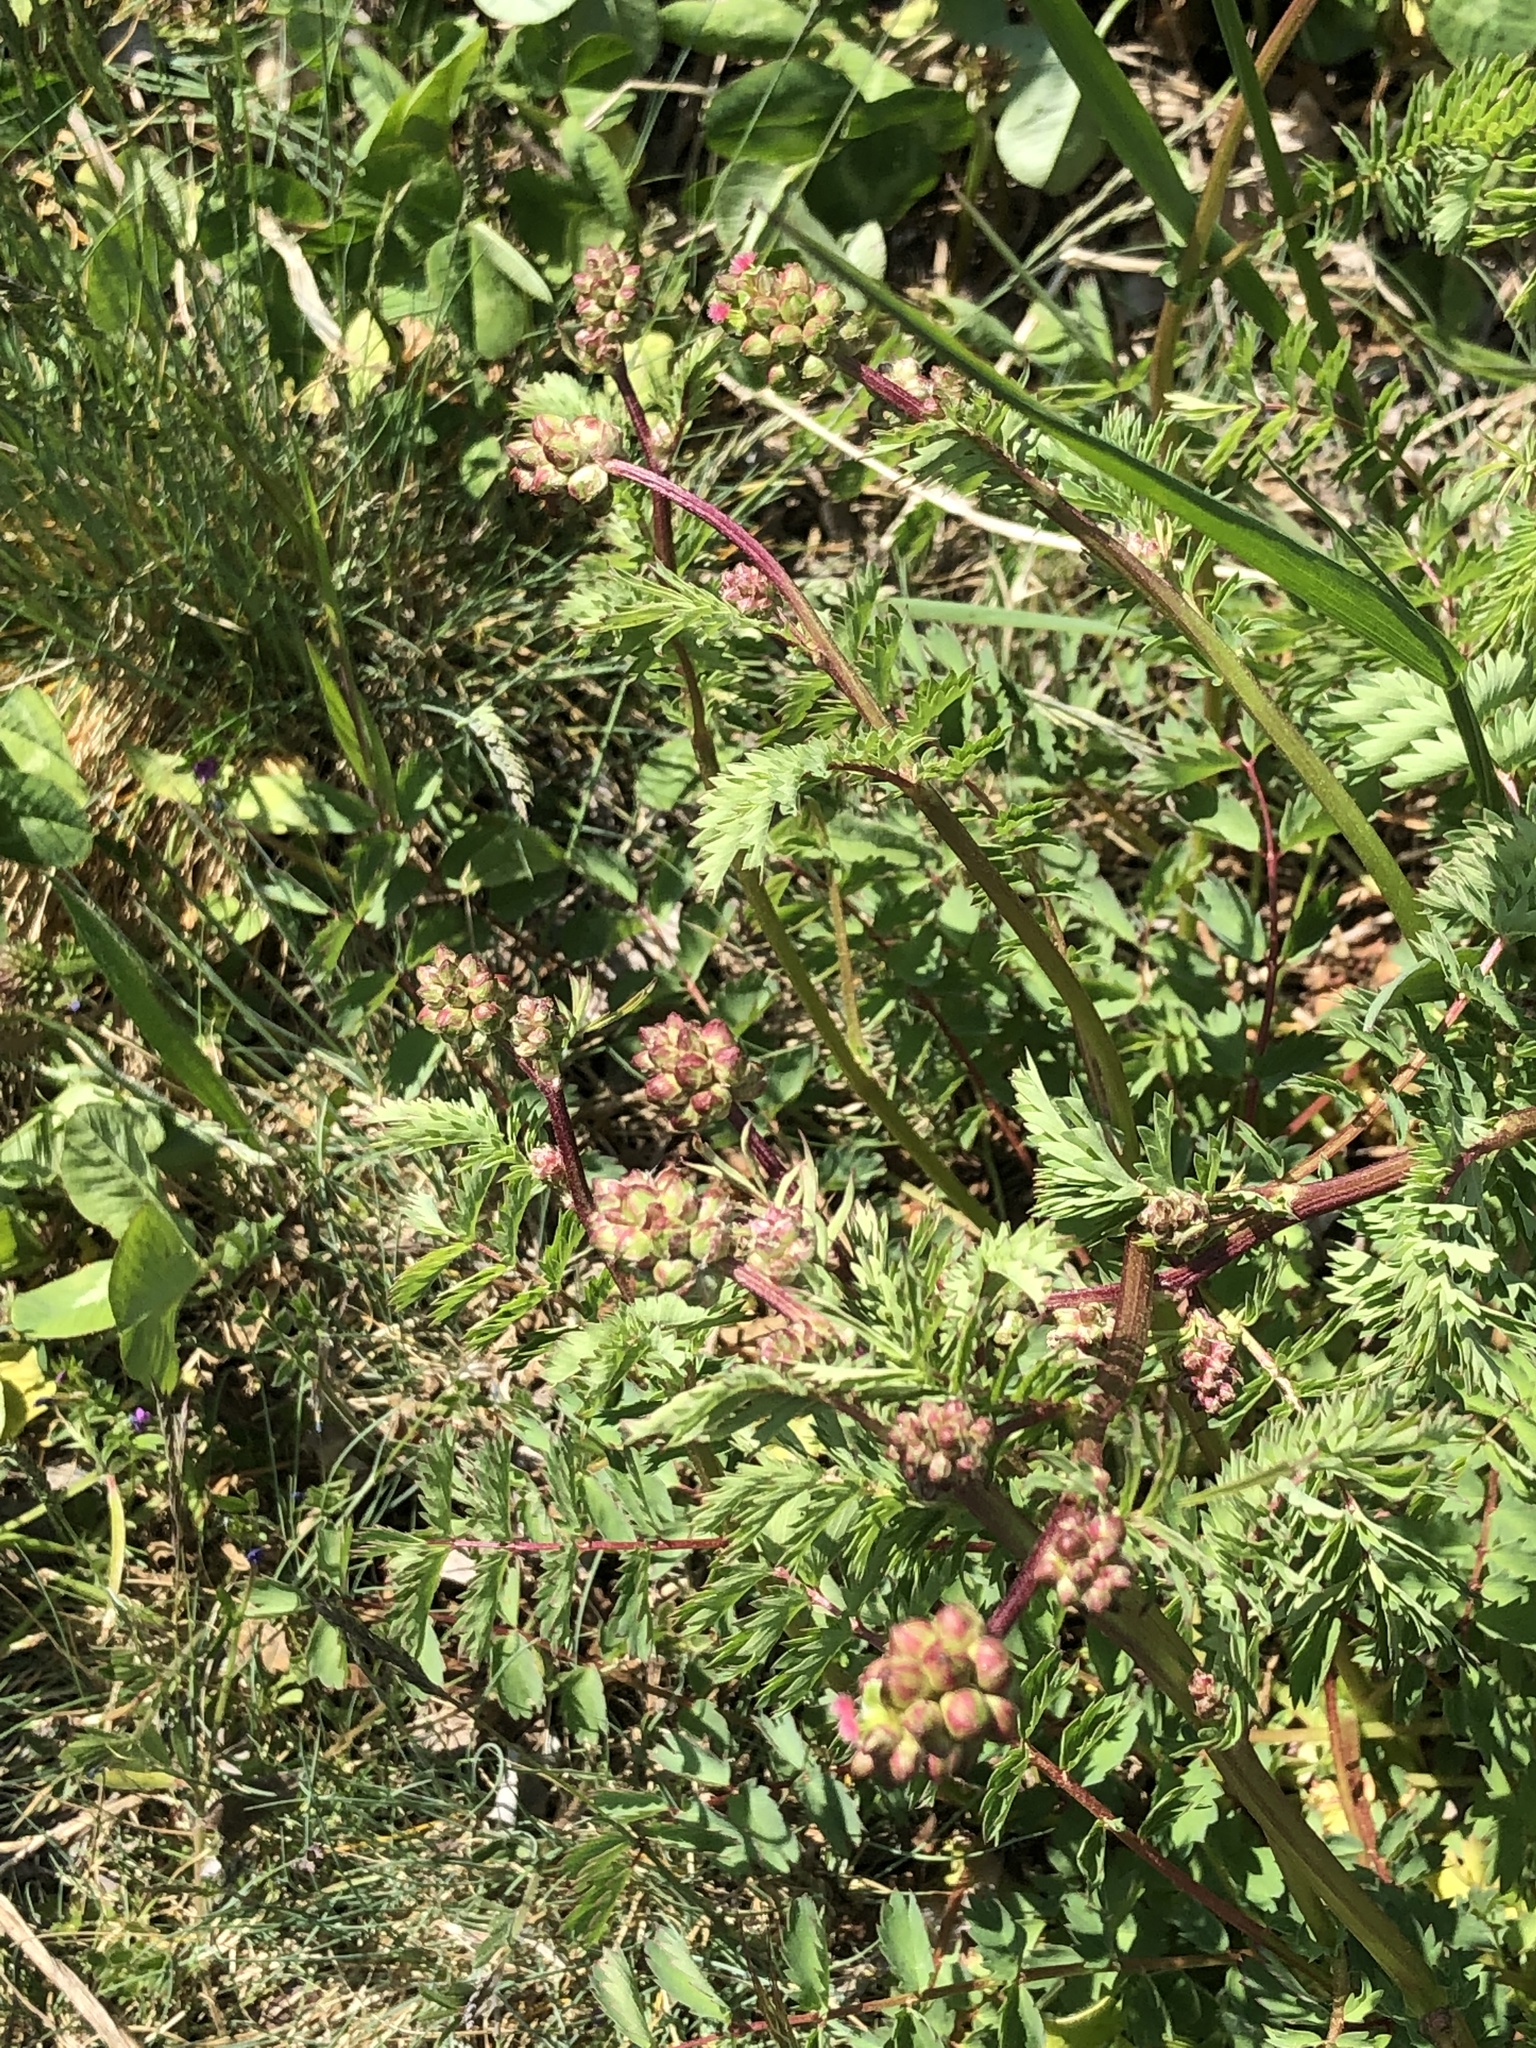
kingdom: Plantae
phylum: Tracheophyta
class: Magnoliopsida
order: Rosales
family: Rosaceae
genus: Poterium
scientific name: Poterium sanguisorba
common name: Salad burnet
